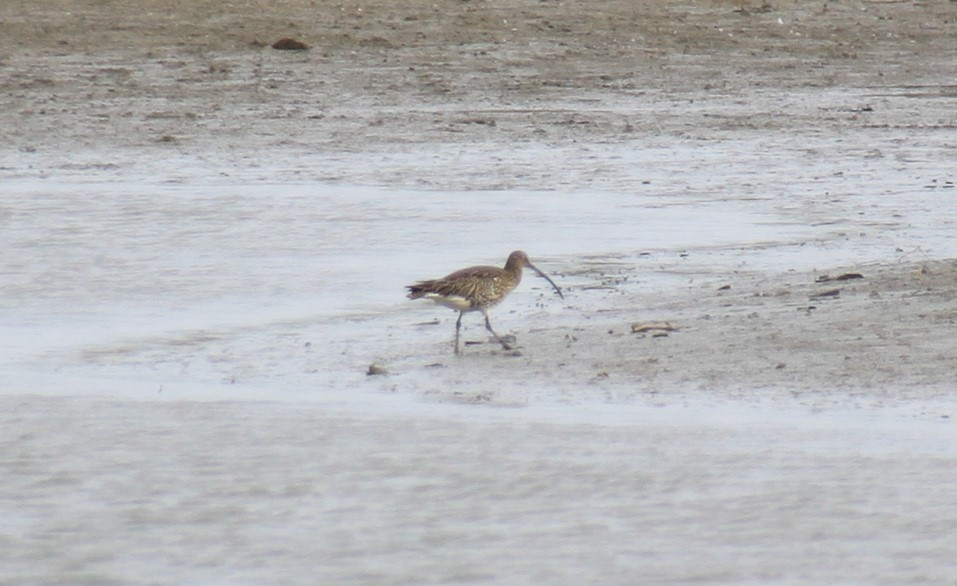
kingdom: Animalia
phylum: Chordata
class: Aves
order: Charadriiformes
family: Scolopacidae
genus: Numenius
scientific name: Numenius arquata
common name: Eurasian curlew
